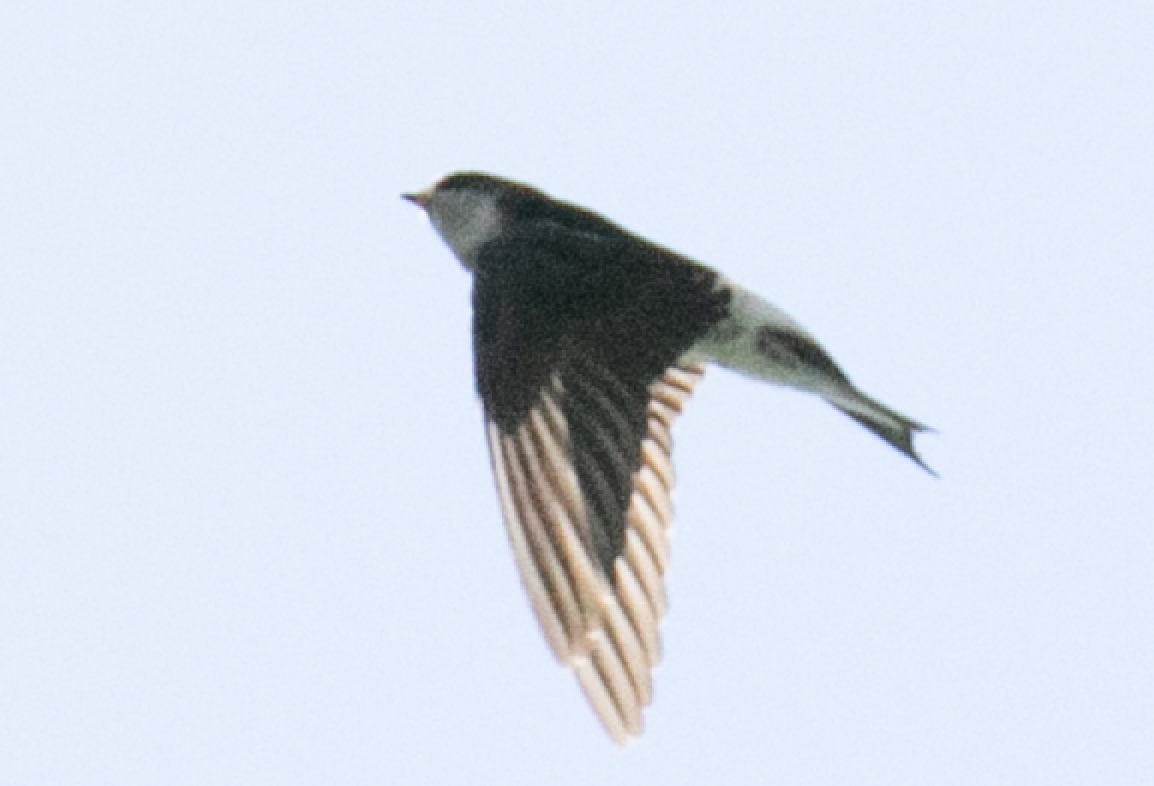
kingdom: Animalia
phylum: Chordata
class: Aves
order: Passeriformes
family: Hirundinidae
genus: Delichon
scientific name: Delichon urbicum
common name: Common house martin
